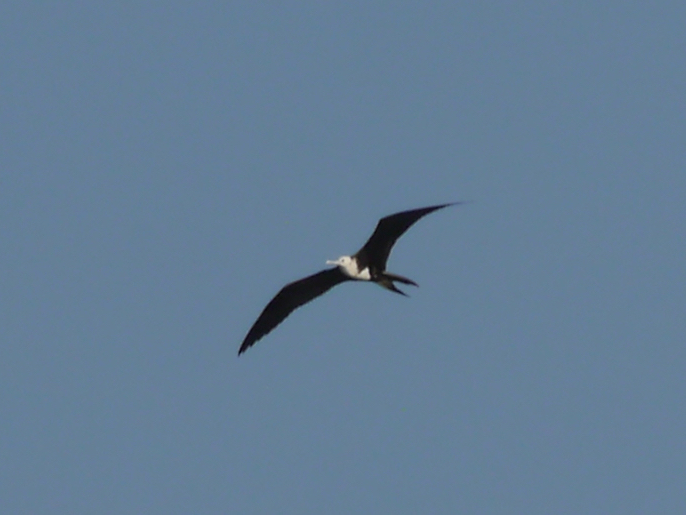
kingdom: Animalia
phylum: Chordata
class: Aves
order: Suliformes
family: Fregatidae
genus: Fregata
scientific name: Fregata magnificens
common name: Magnificent frigatebird
